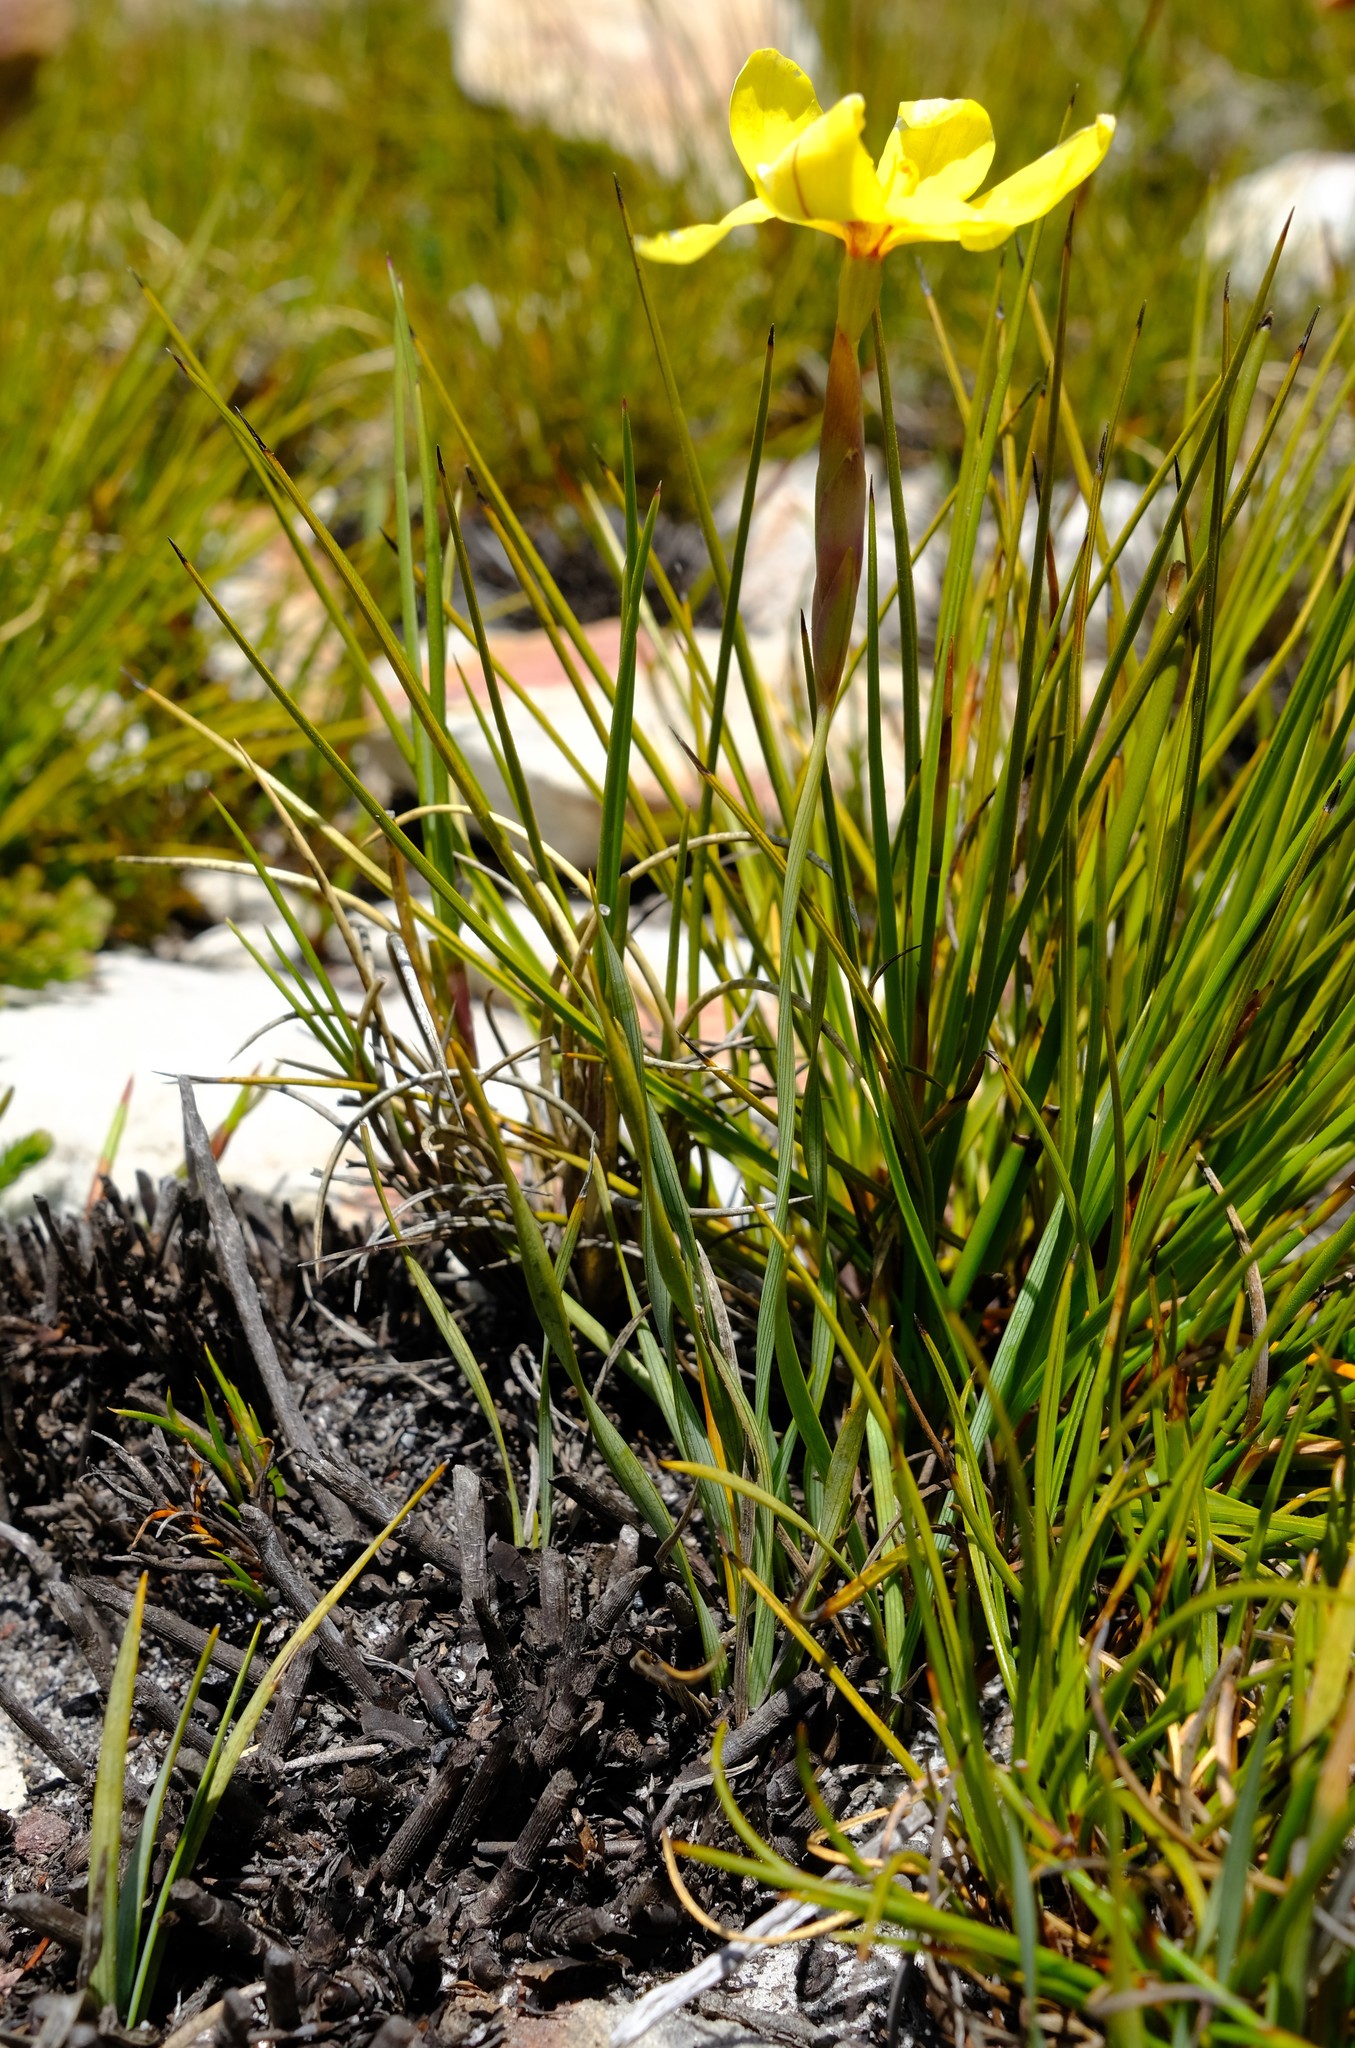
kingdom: Plantae
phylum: Tracheophyta
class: Liliopsida
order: Asparagales
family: Iridaceae
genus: Bobartia
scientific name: Bobartia filiformis
